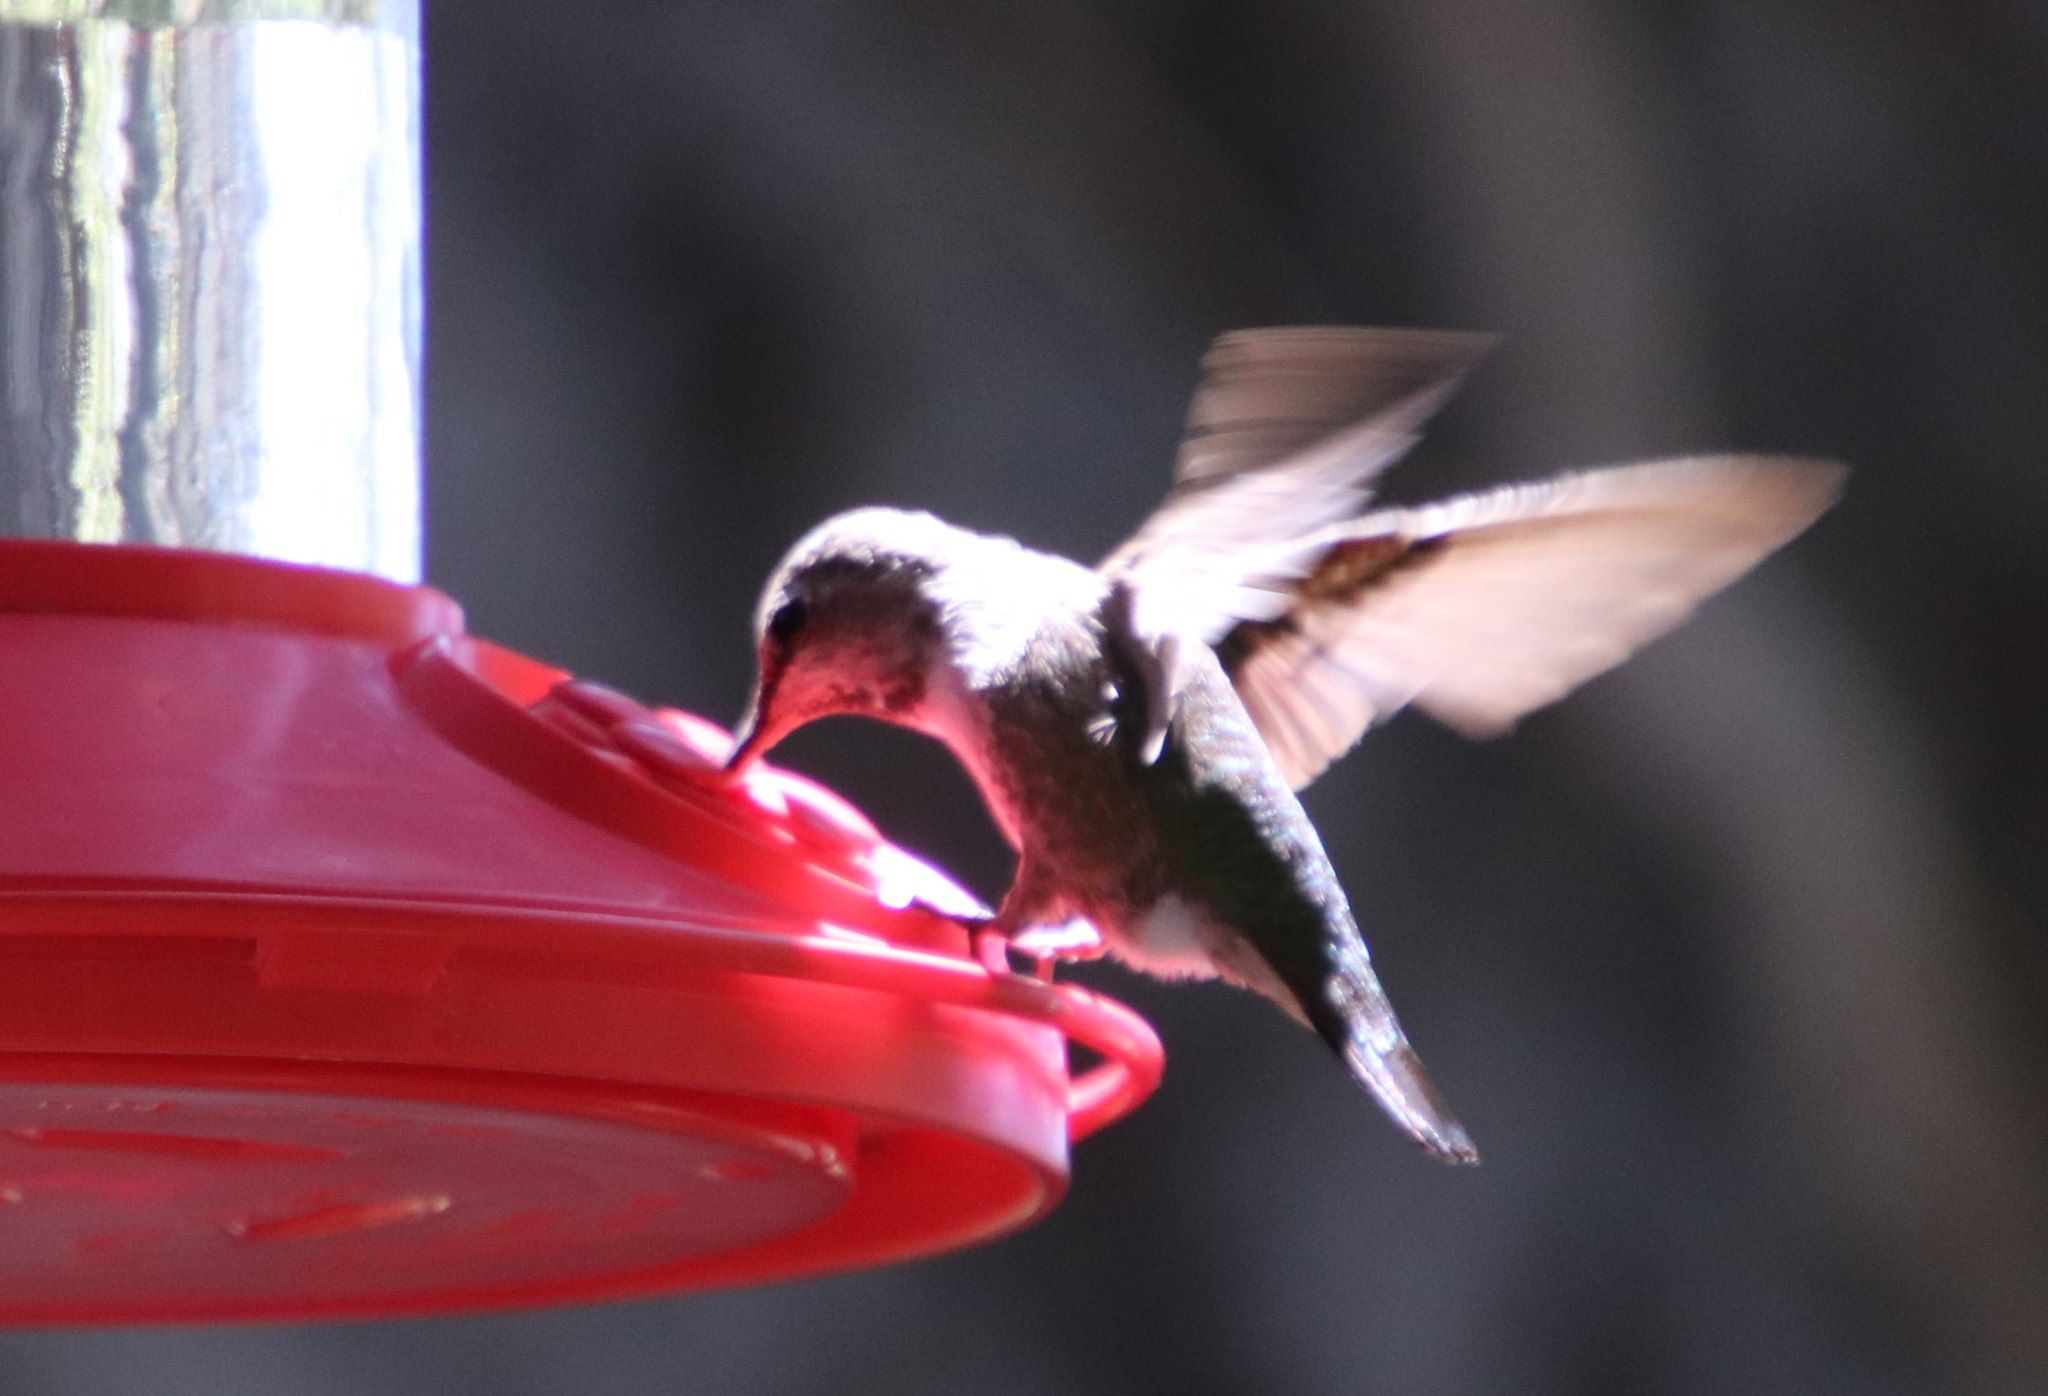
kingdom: Animalia
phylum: Chordata
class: Aves
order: Apodiformes
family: Trochilidae
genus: Calypte
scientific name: Calypte anna
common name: Anna's hummingbird
